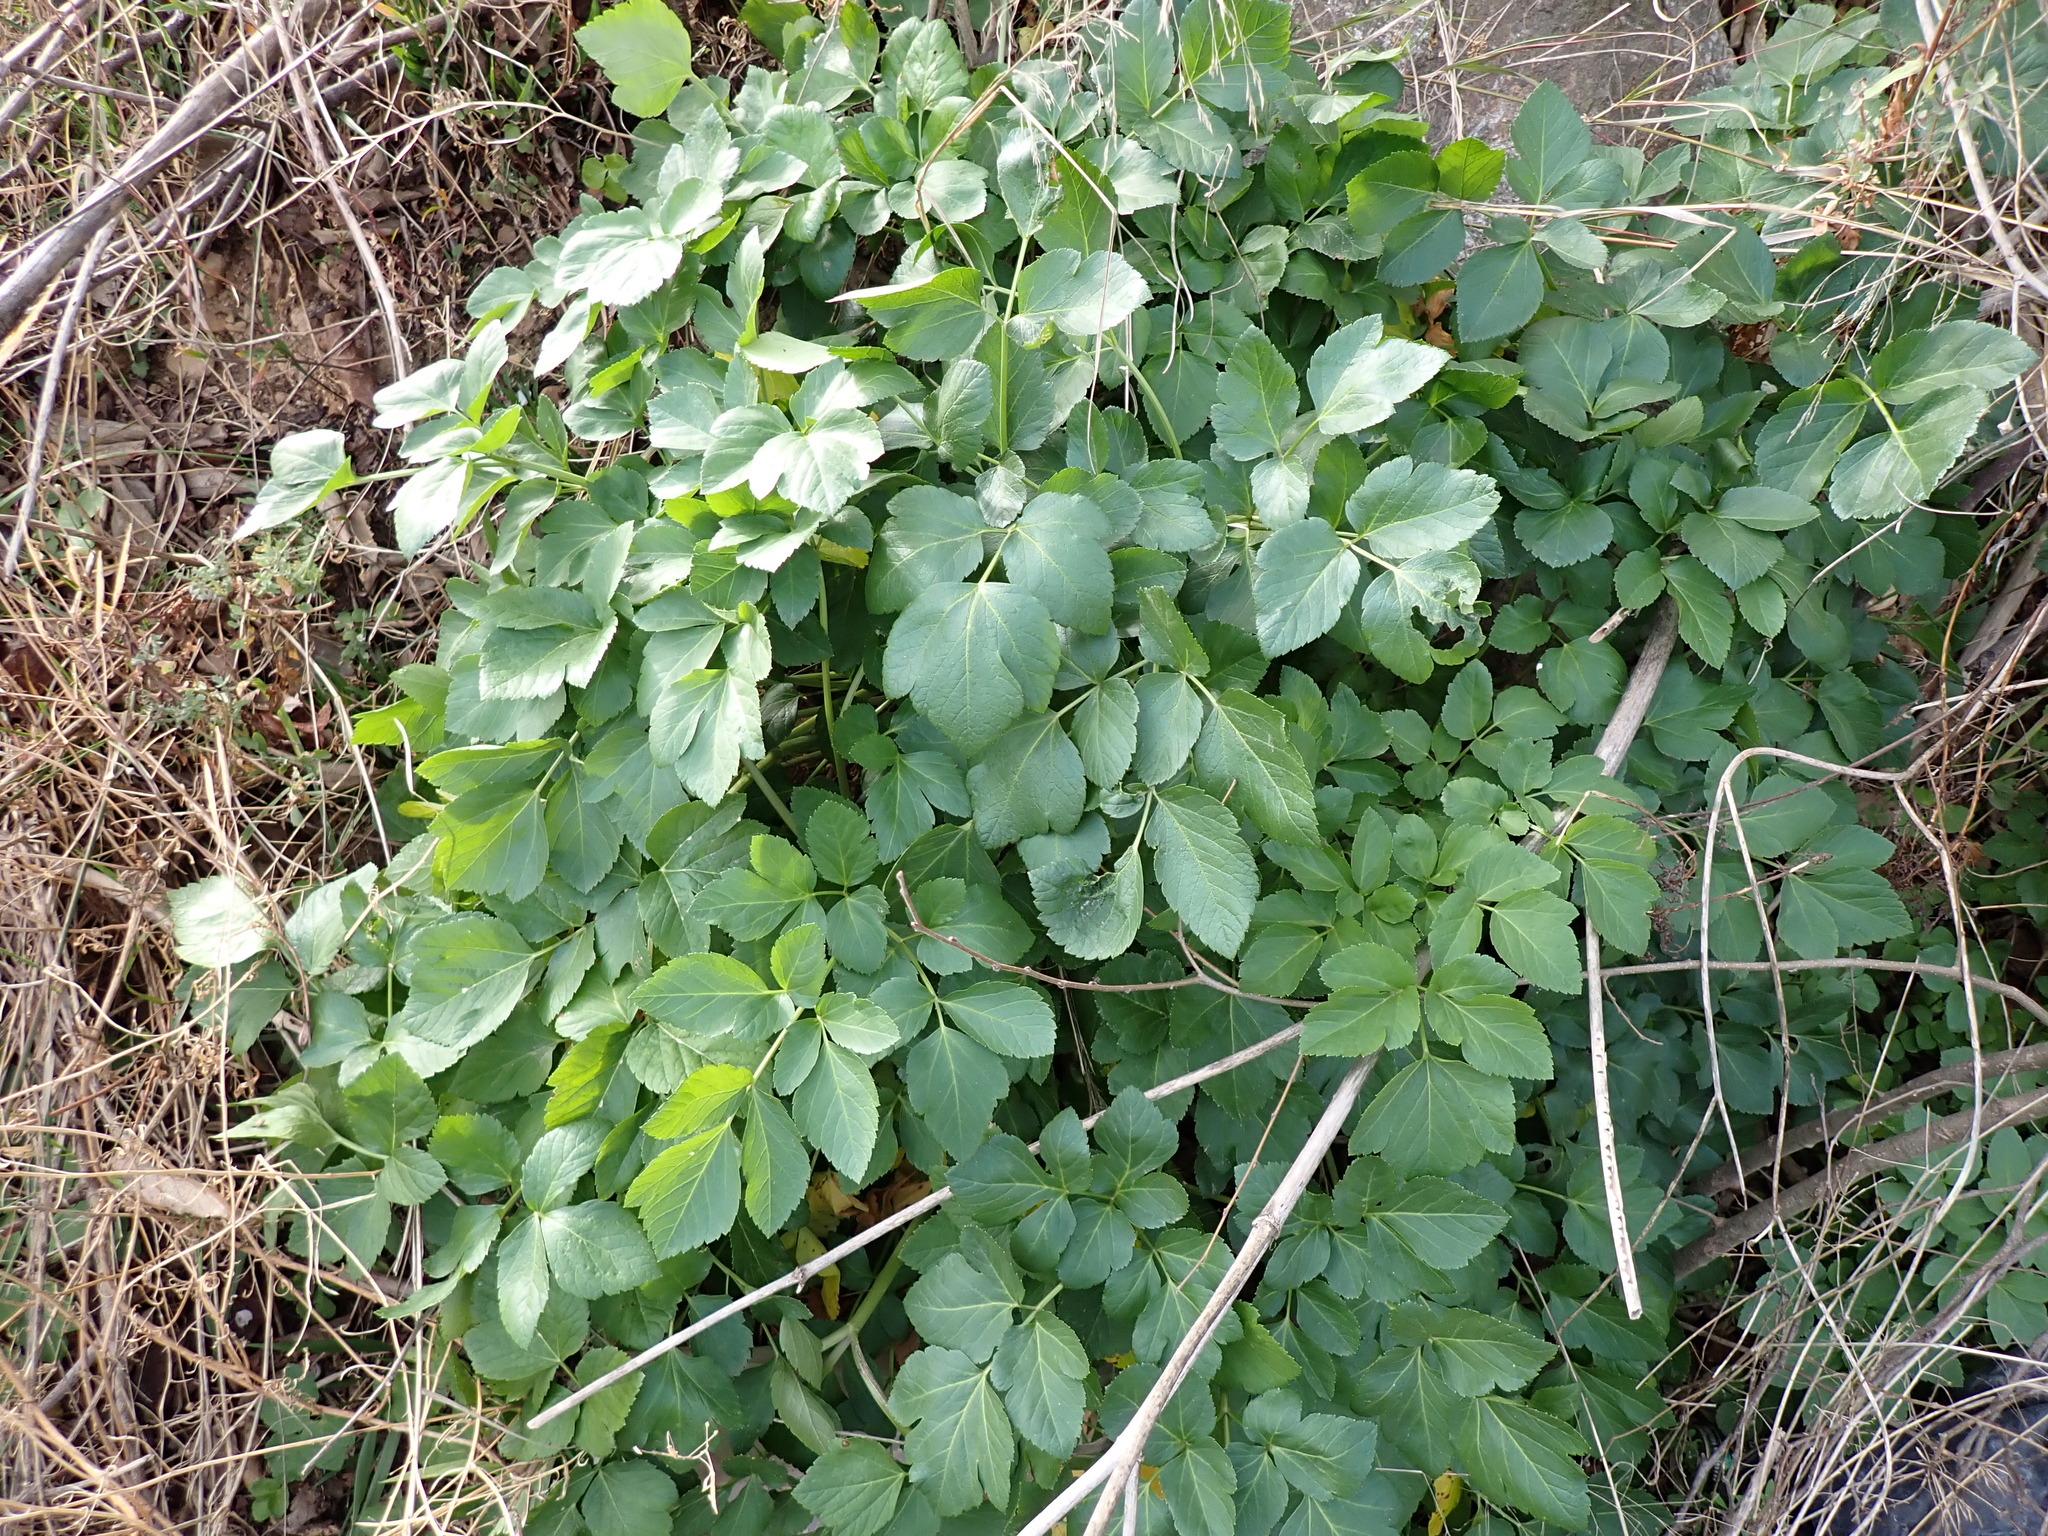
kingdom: Plantae
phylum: Tracheophyta
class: Magnoliopsida
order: Apiales
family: Apiaceae
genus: Smyrnium
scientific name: Smyrnium olusatrum
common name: Alexanders
